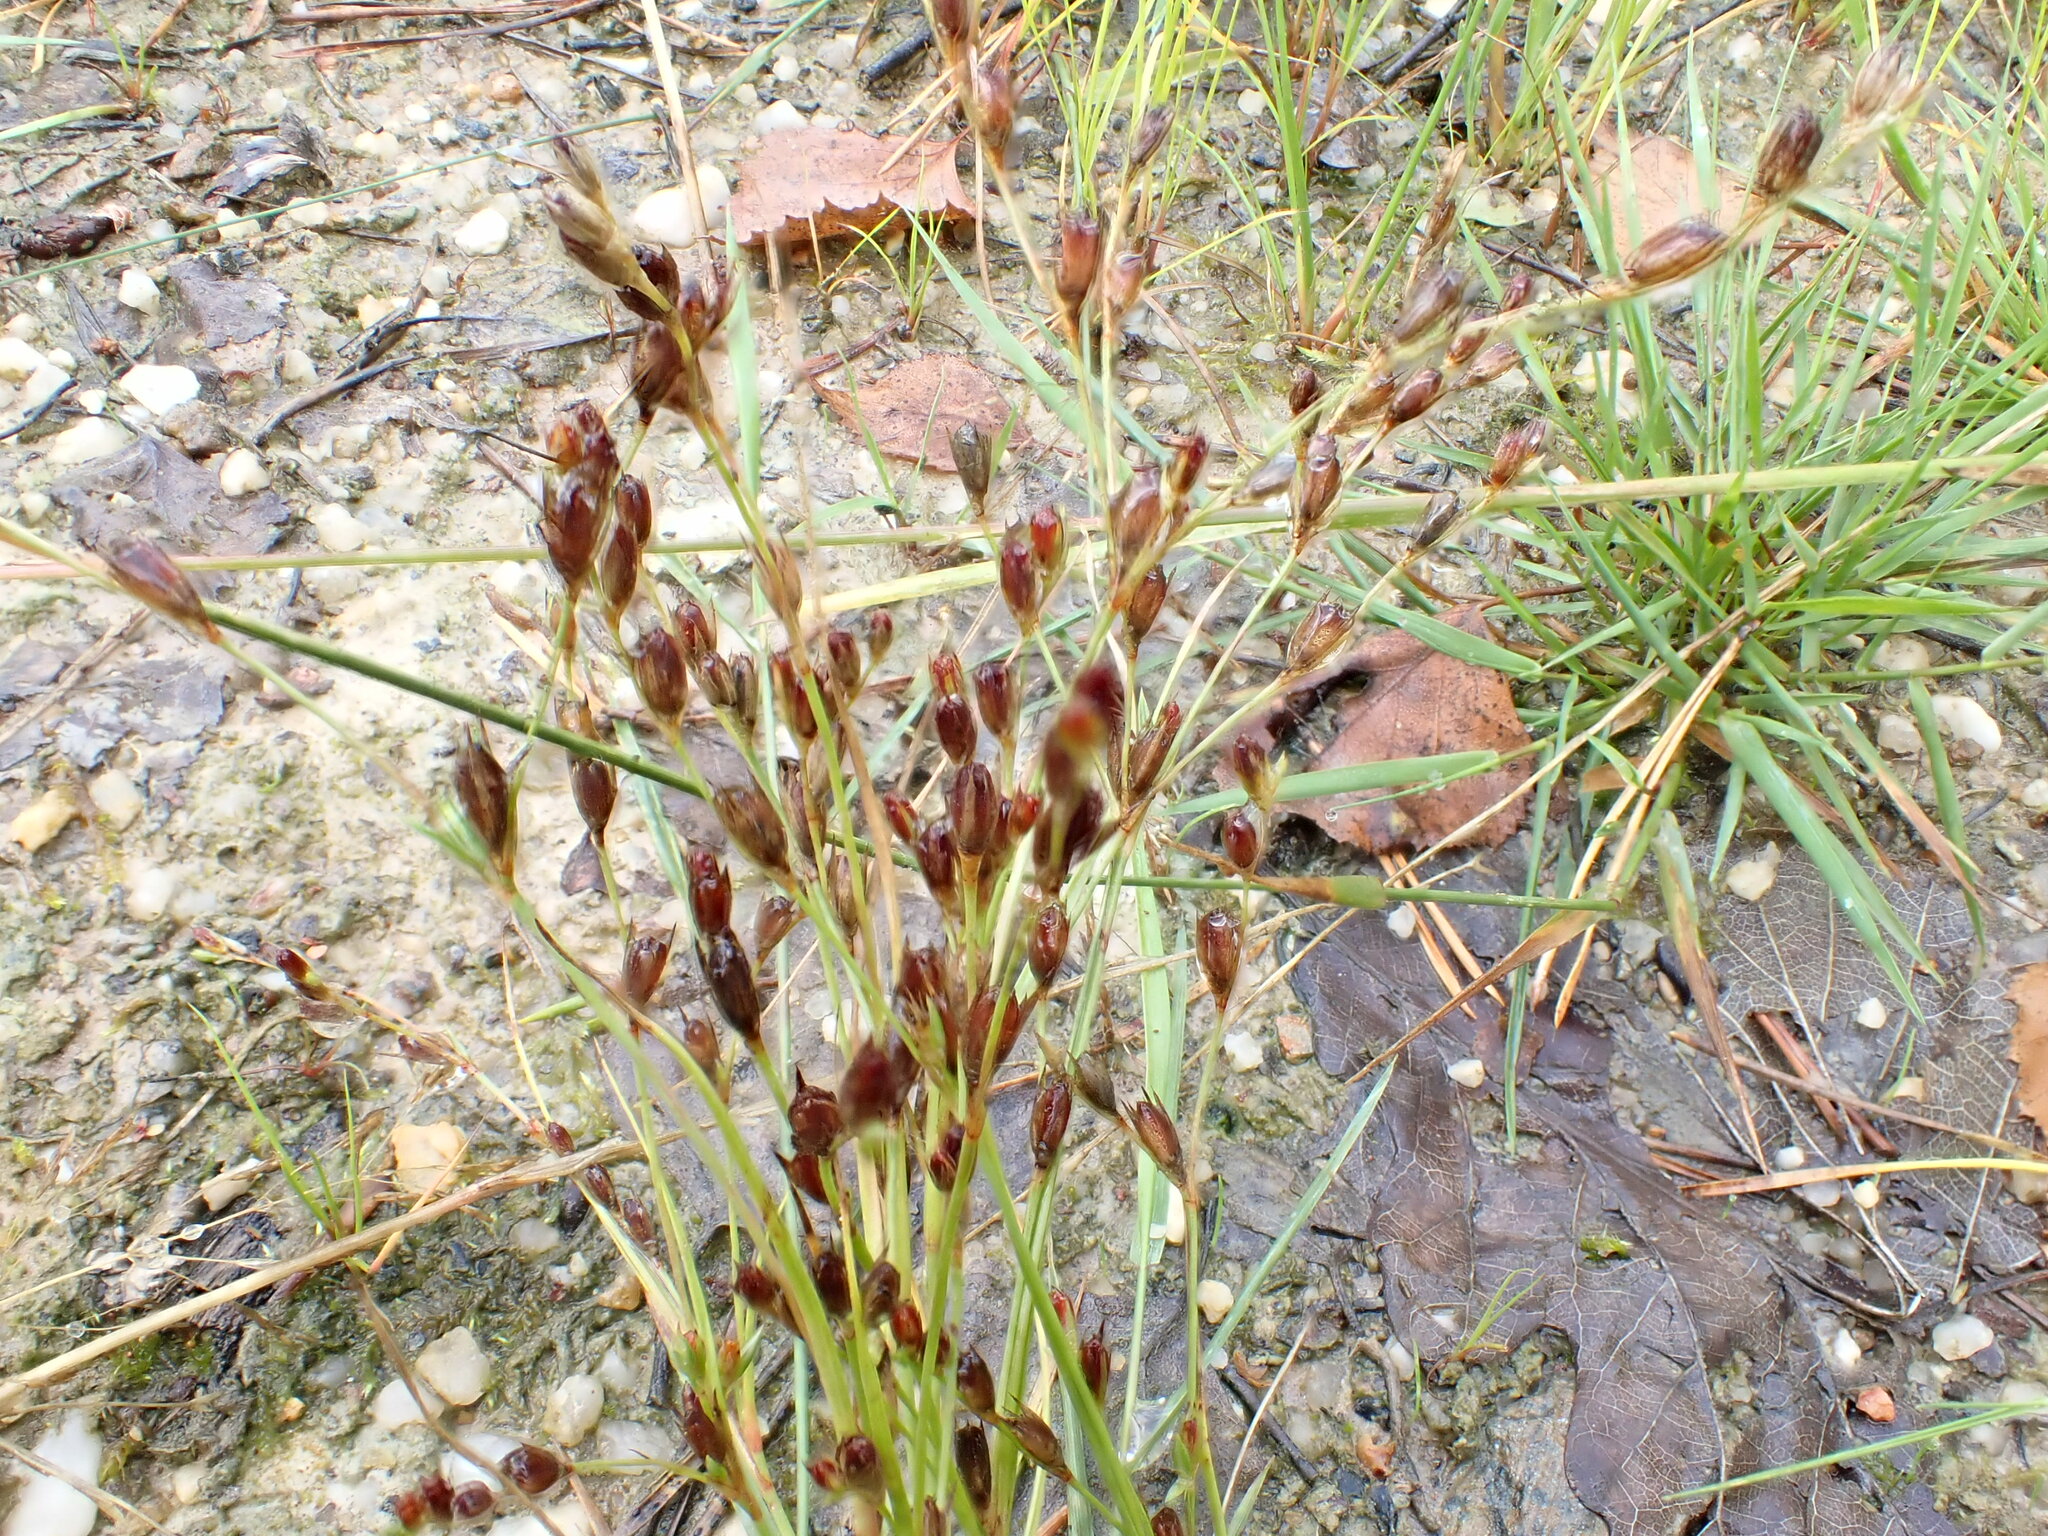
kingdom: Plantae
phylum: Tracheophyta
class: Liliopsida
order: Poales
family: Juncaceae
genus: Juncus
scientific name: Juncus bufonius
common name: Toad rush
